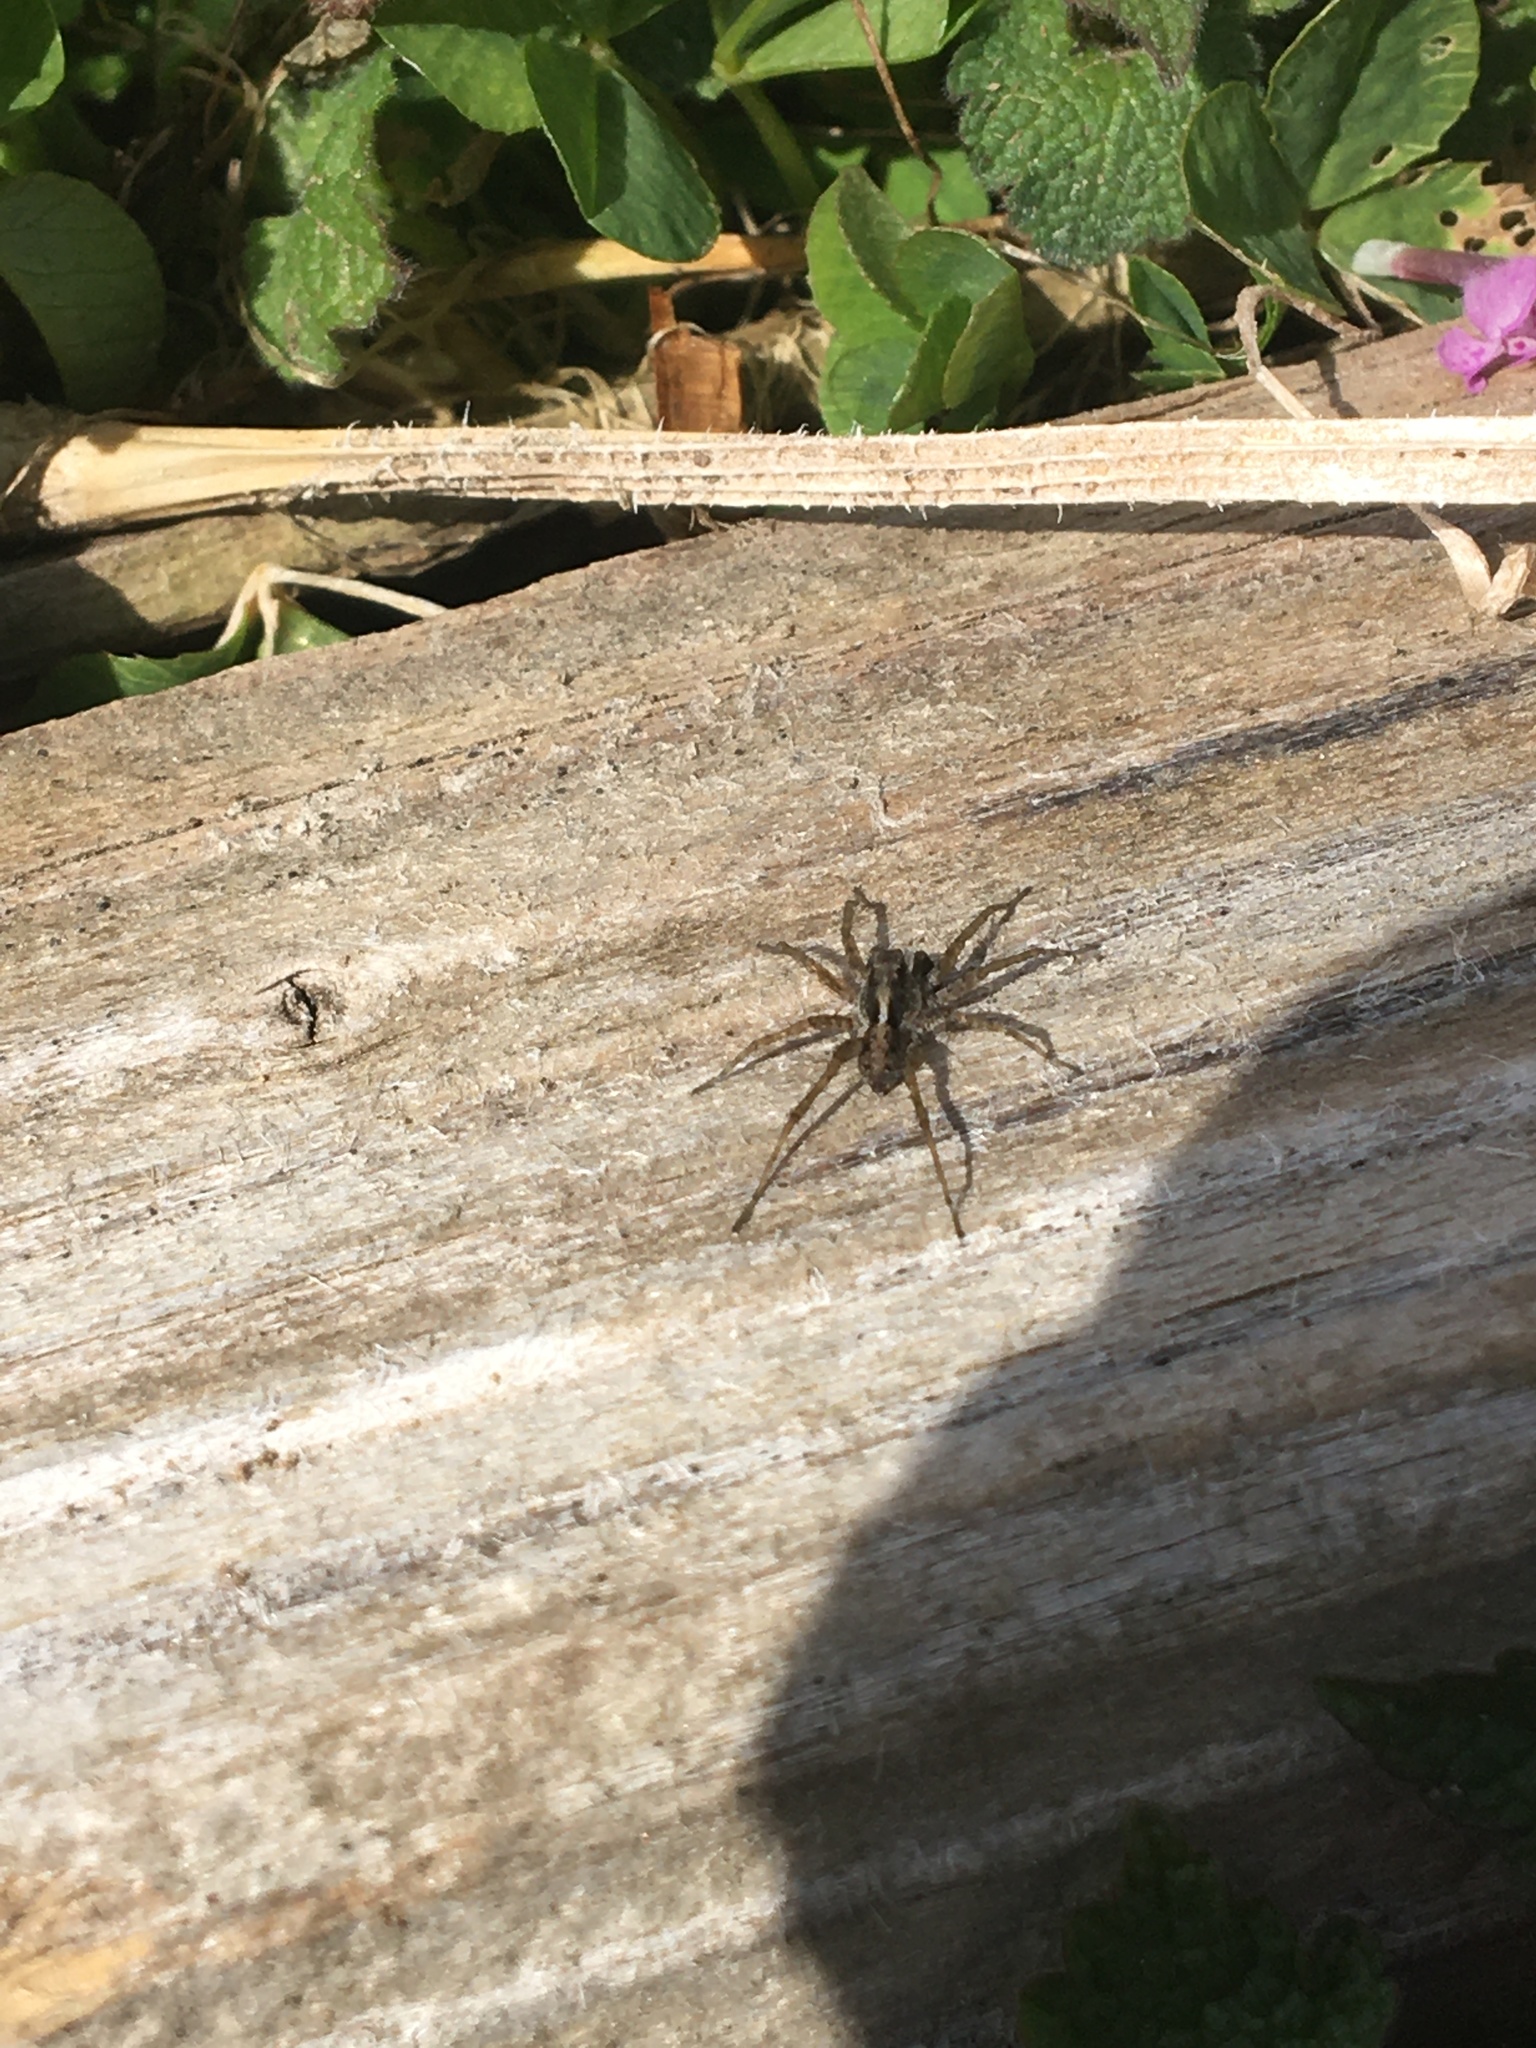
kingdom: Animalia
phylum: Arthropoda
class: Arachnida
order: Araneae
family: Lycosidae
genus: Pardosa
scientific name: Pardosa
